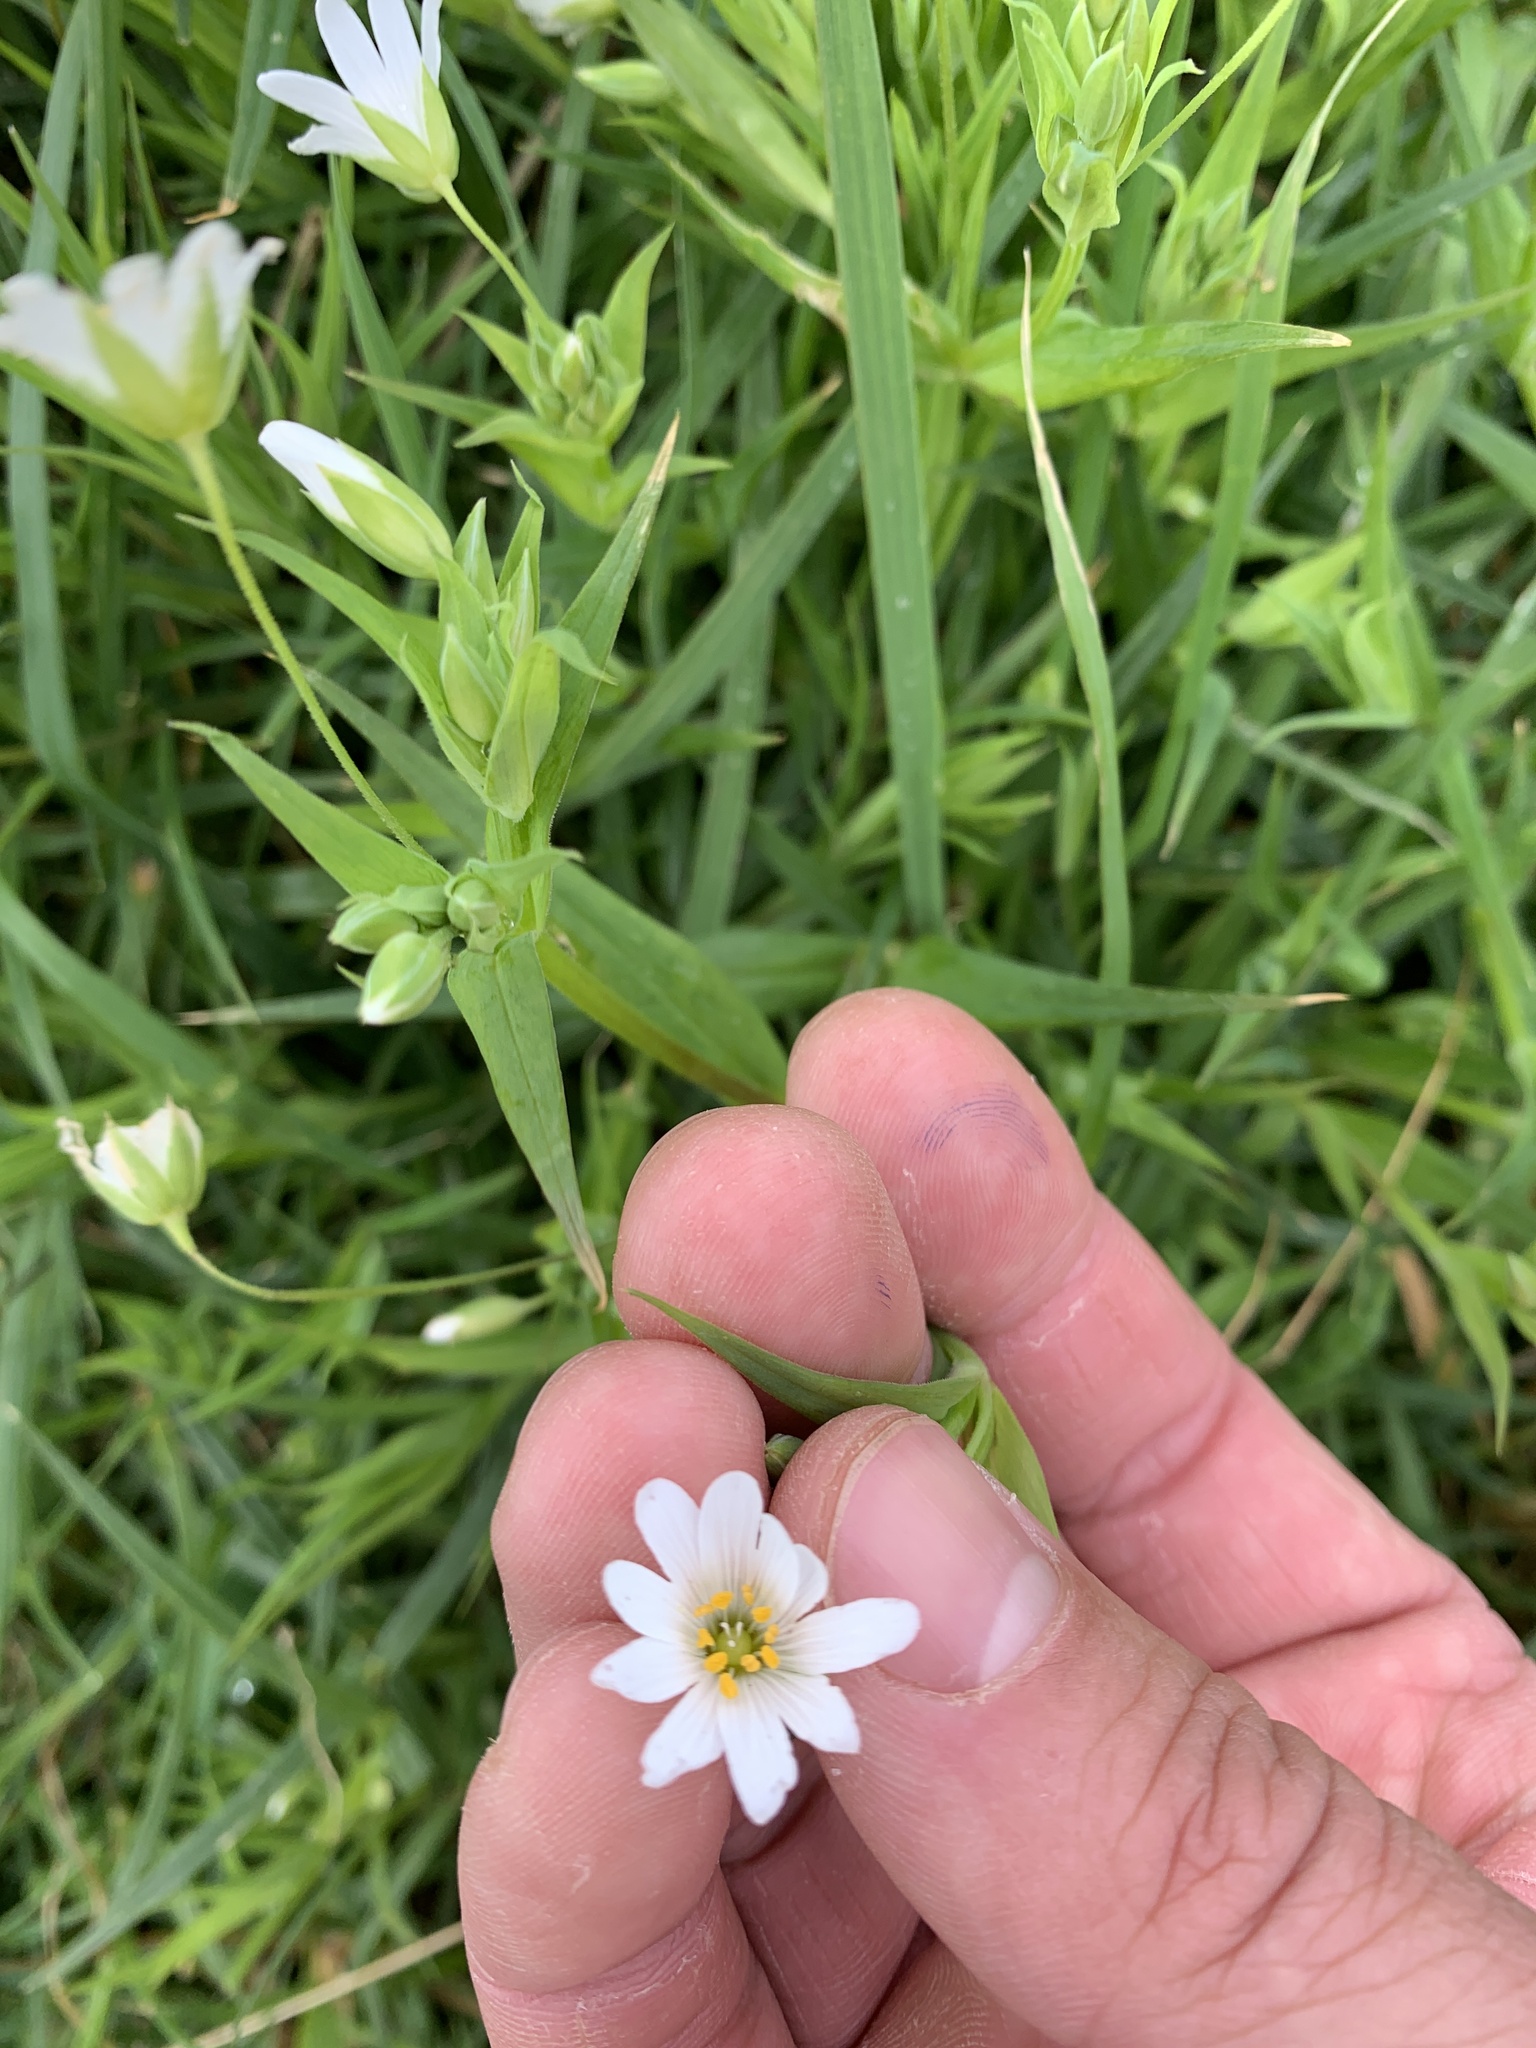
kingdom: Plantae
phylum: Tracheophyta
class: Magnoliopsida
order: Caryophyllales
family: Caryophyllaceae
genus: Rabelera
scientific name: Rabelera holostea
